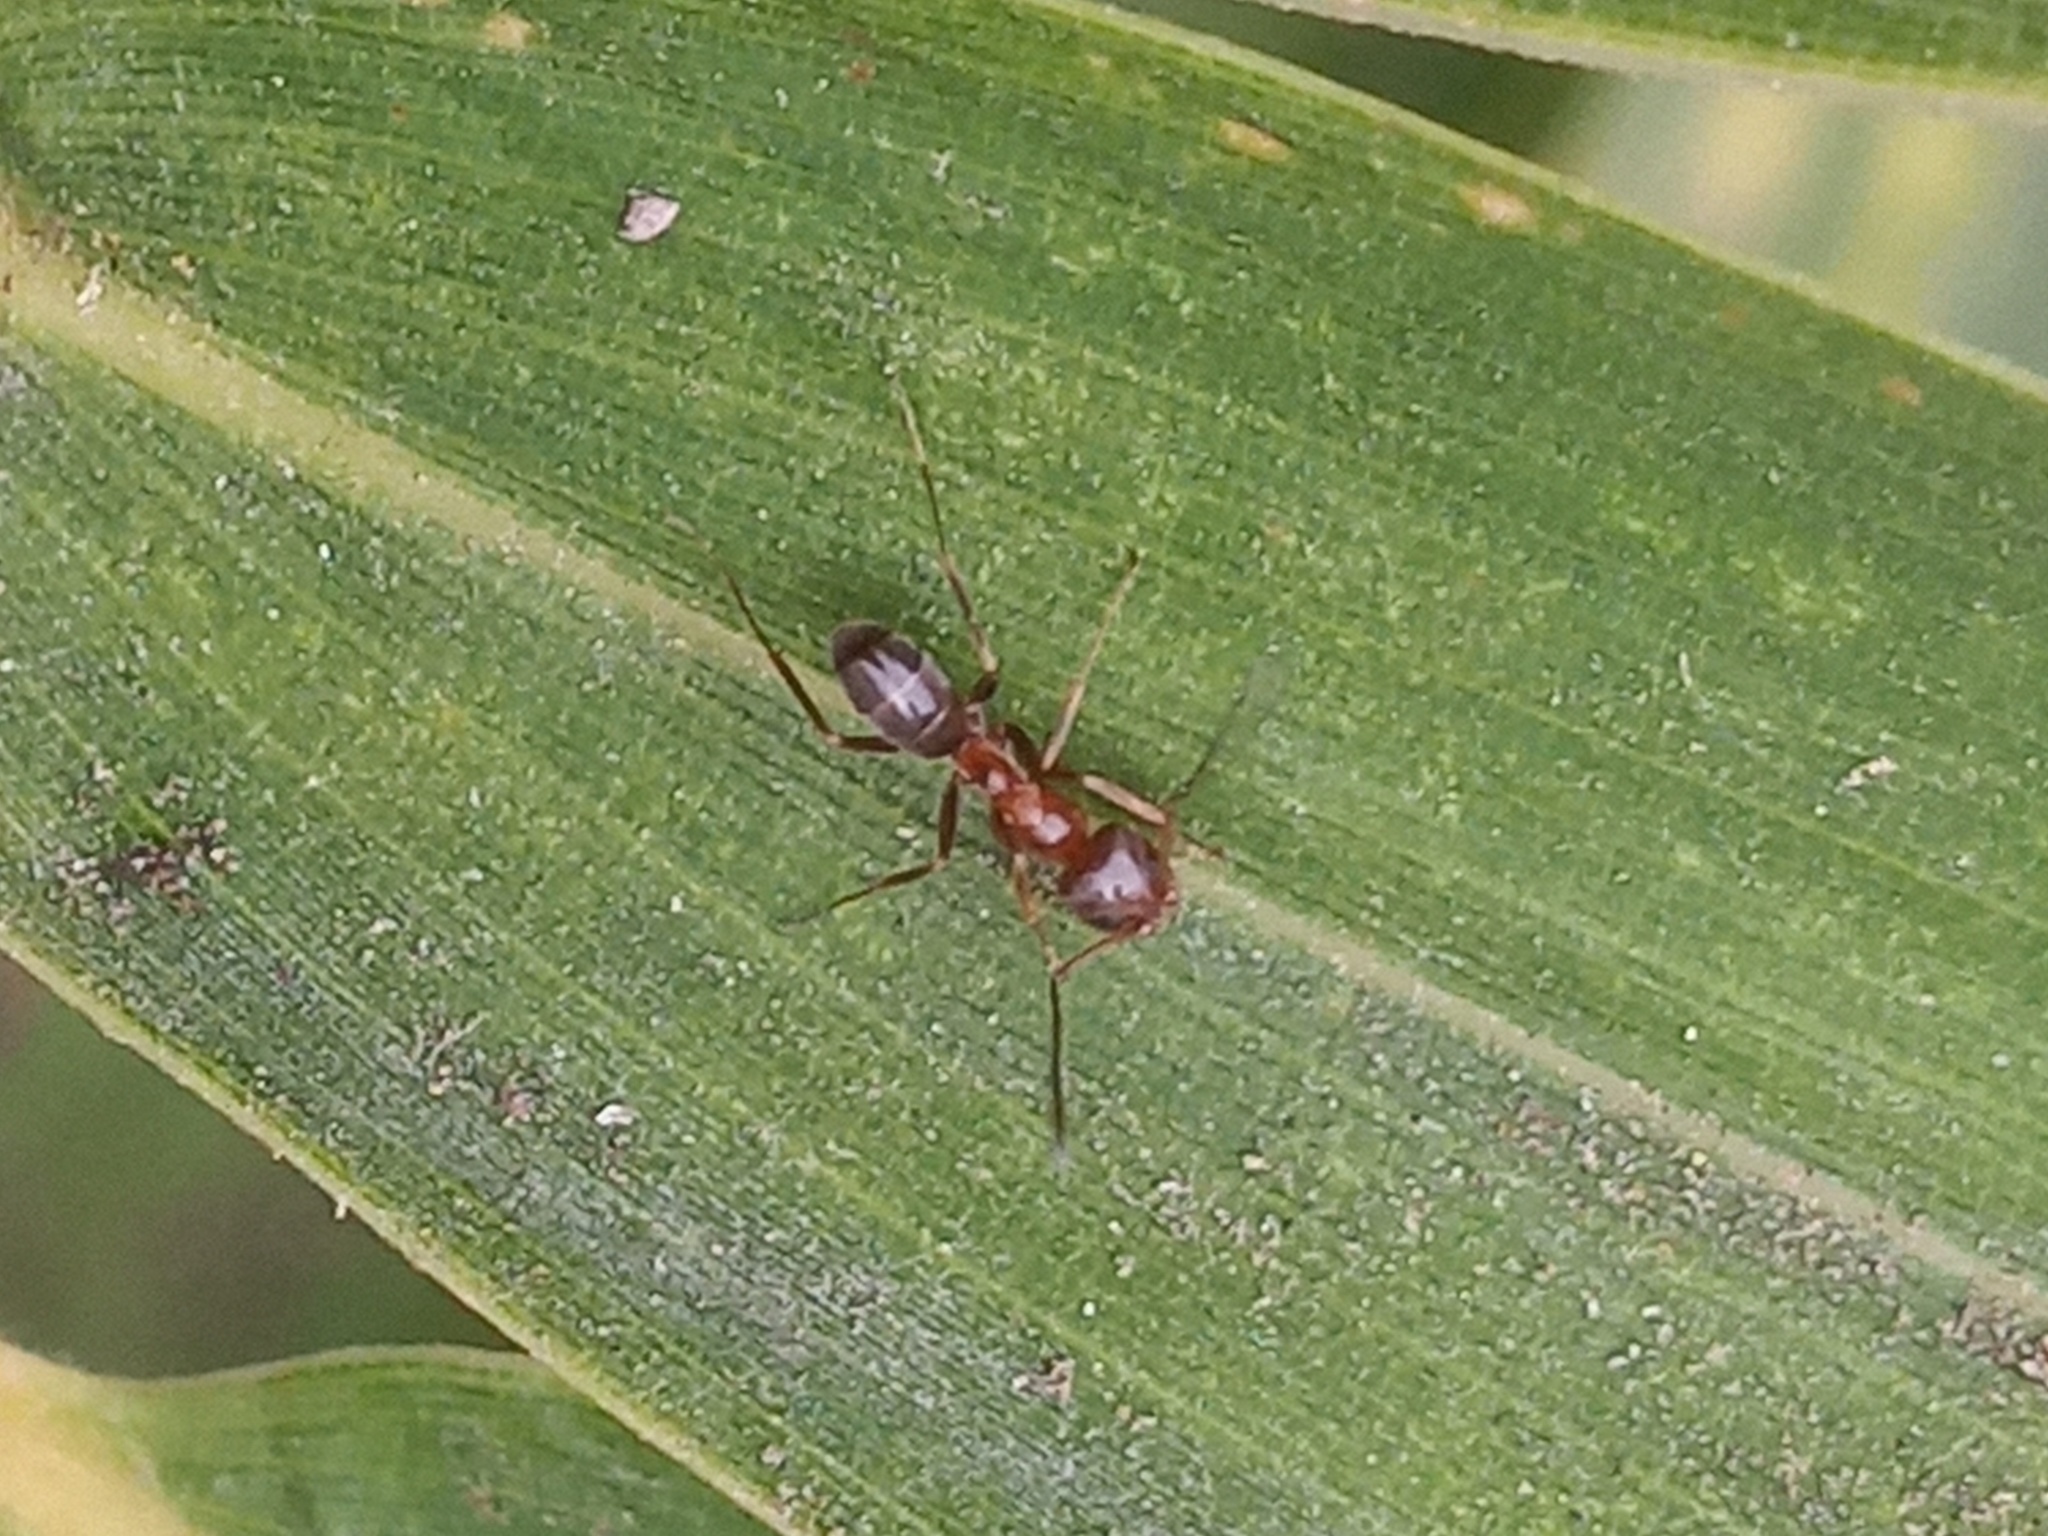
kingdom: Animalia
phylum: Arthropoda
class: Insecta
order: Hymenoptera
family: Formicidae
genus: Dorymyrmex
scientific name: Dorymyrmex bicolor
